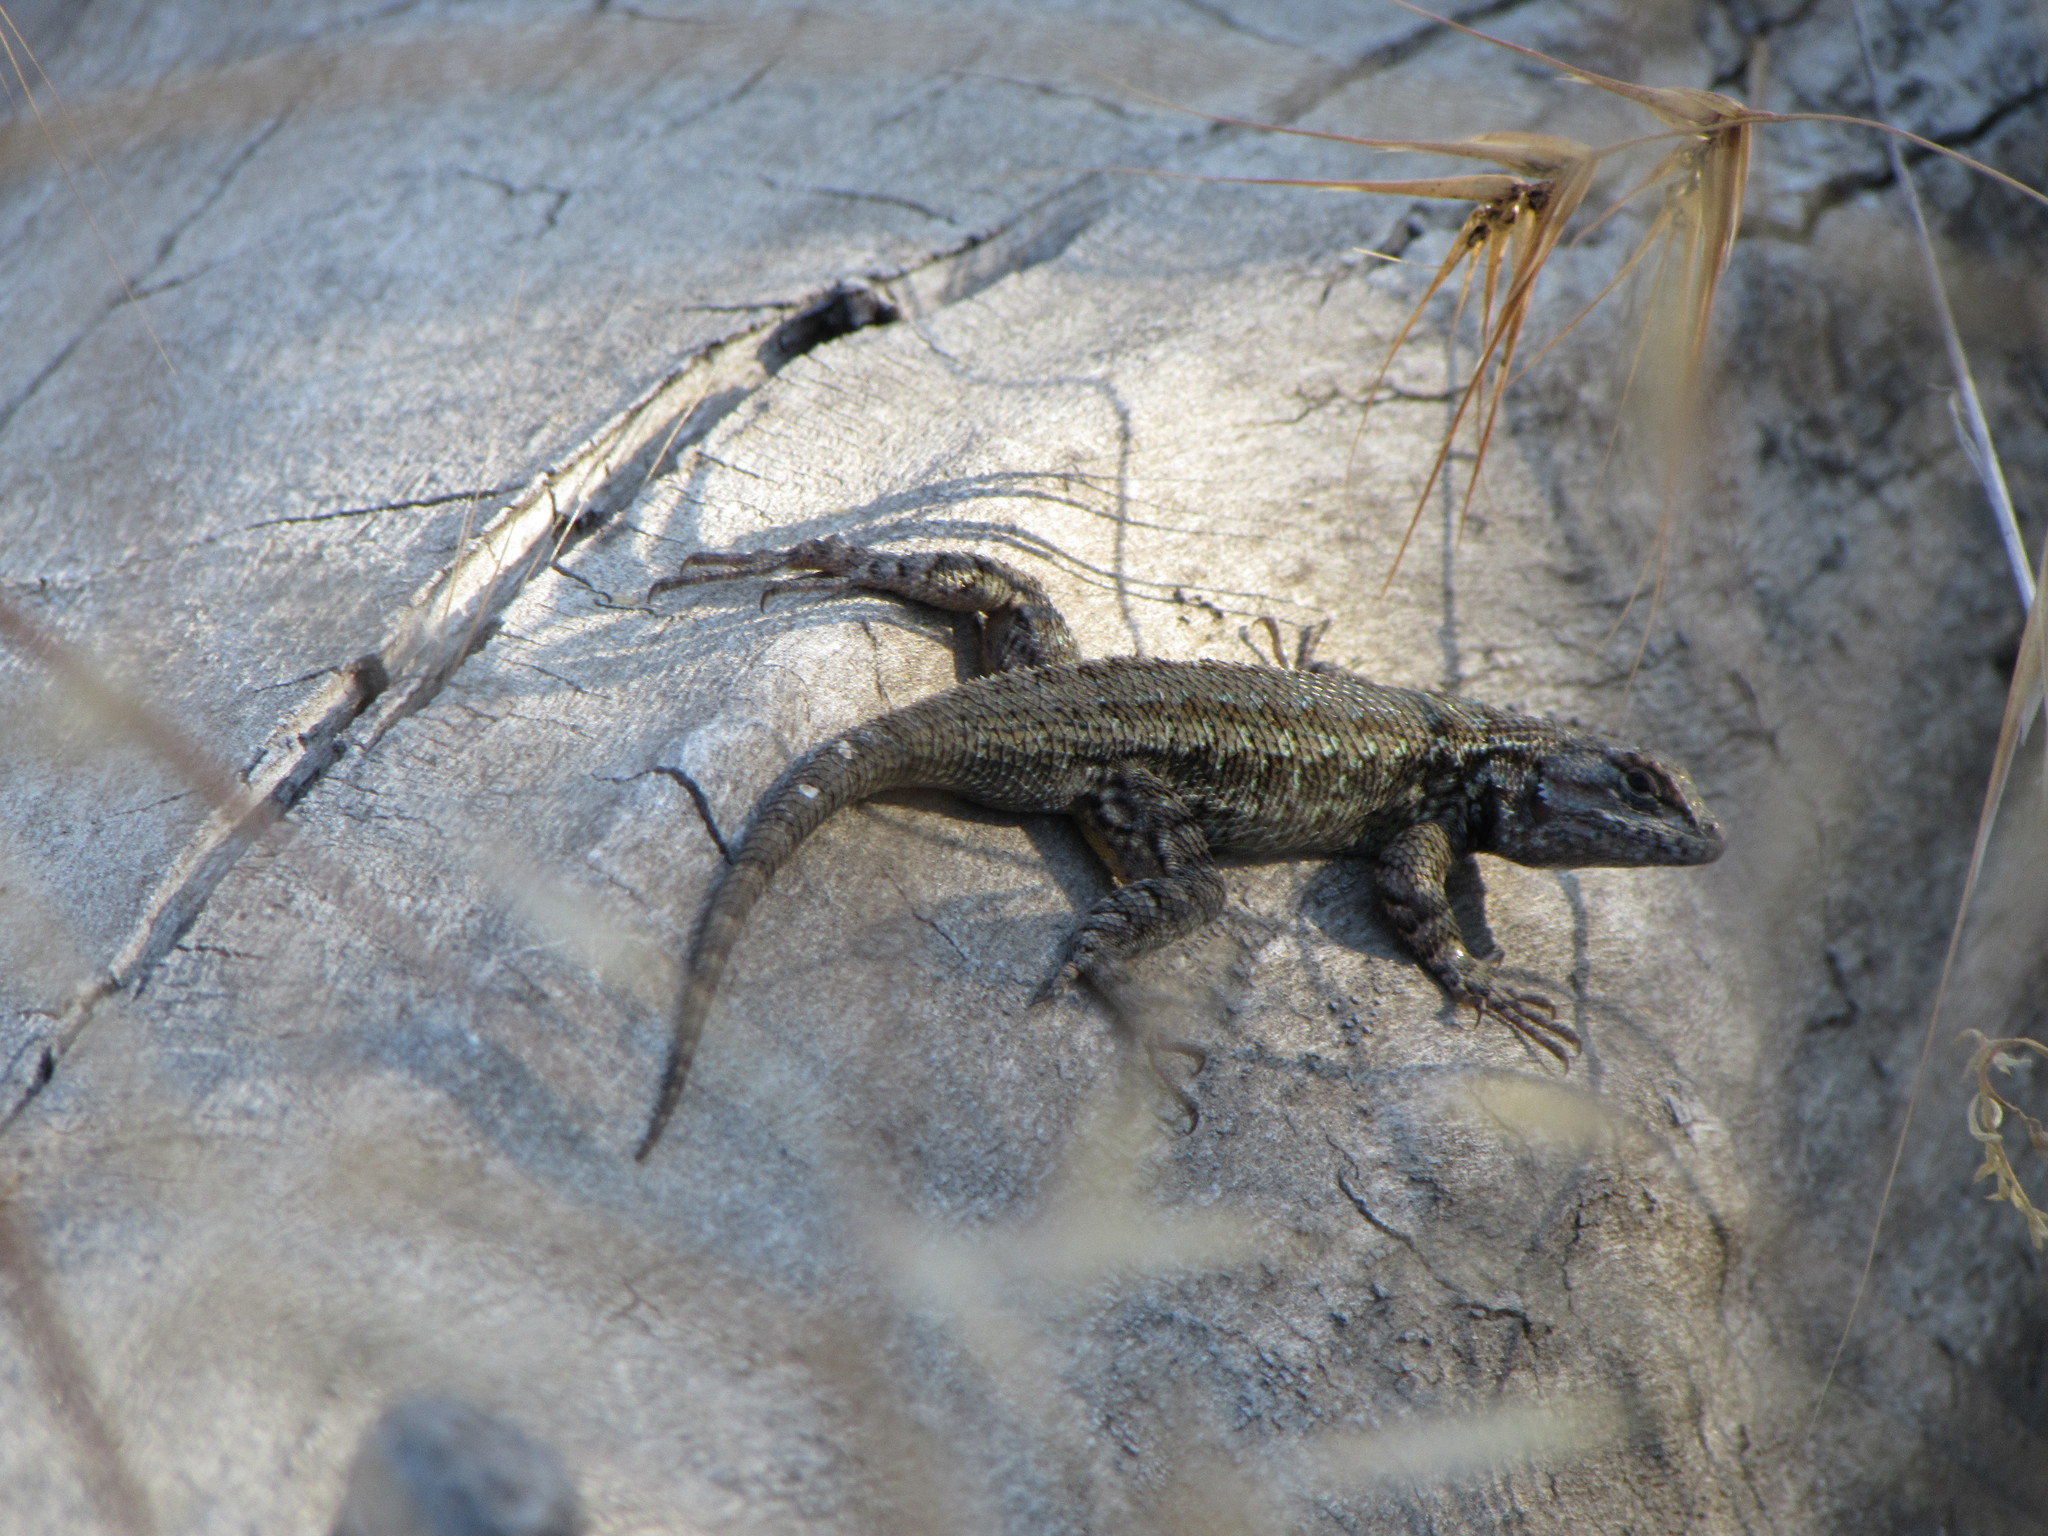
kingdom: Animalia
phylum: Chordata
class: Squamata
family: Phrynosomatidae
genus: Sceloporus
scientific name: Sceloporus occidentalis
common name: Western fence lizard
